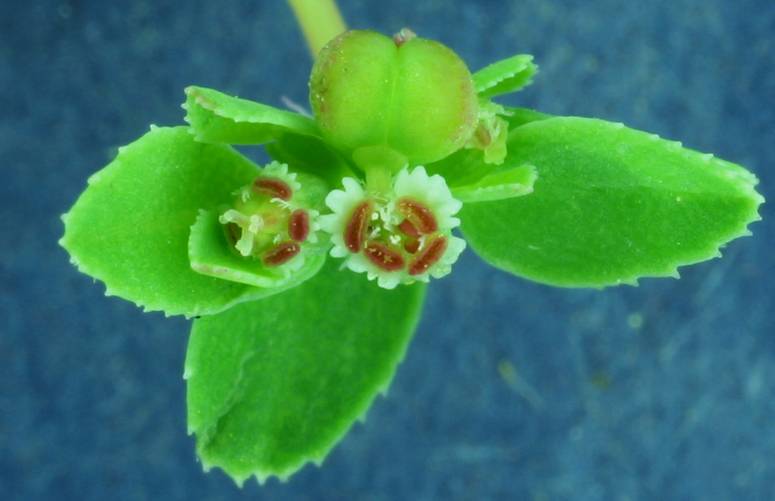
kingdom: Plantae
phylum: Tracheophyta
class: Magnoliopsida
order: Malpighiales
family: Euphorbiaceae
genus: Euphorbia
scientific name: Euphorbia serpillifolia
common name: Thyme-leaf spurge
